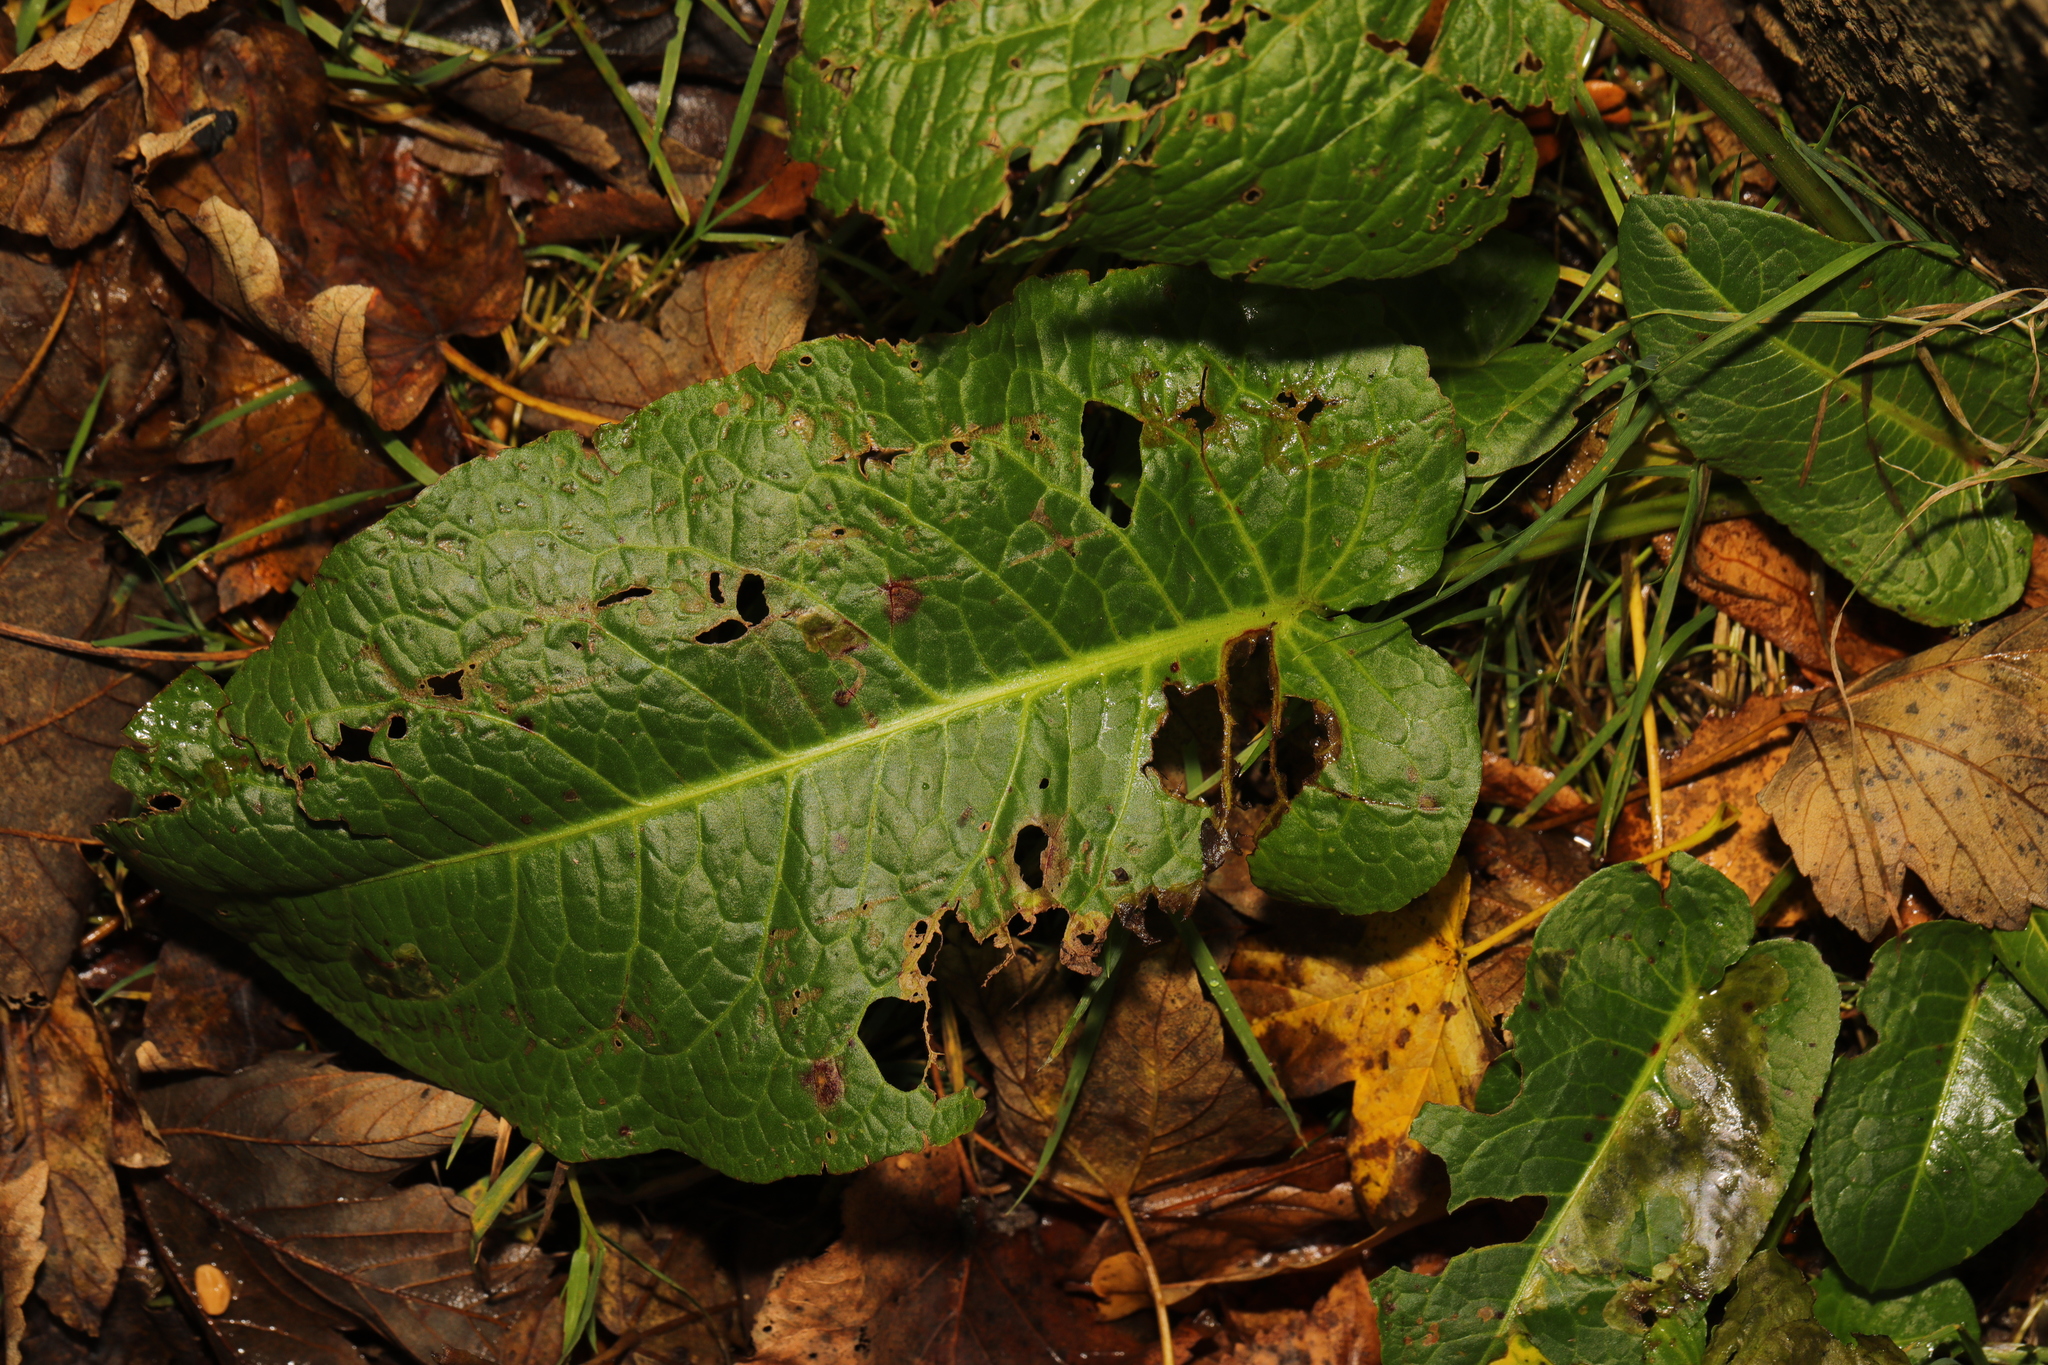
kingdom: Plantae
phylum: Tracheophyta
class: Magnoliopsida
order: Caryophyllales
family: Polygonaceae
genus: Rumex
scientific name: Rumex obtusifolius
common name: Bitter dock
